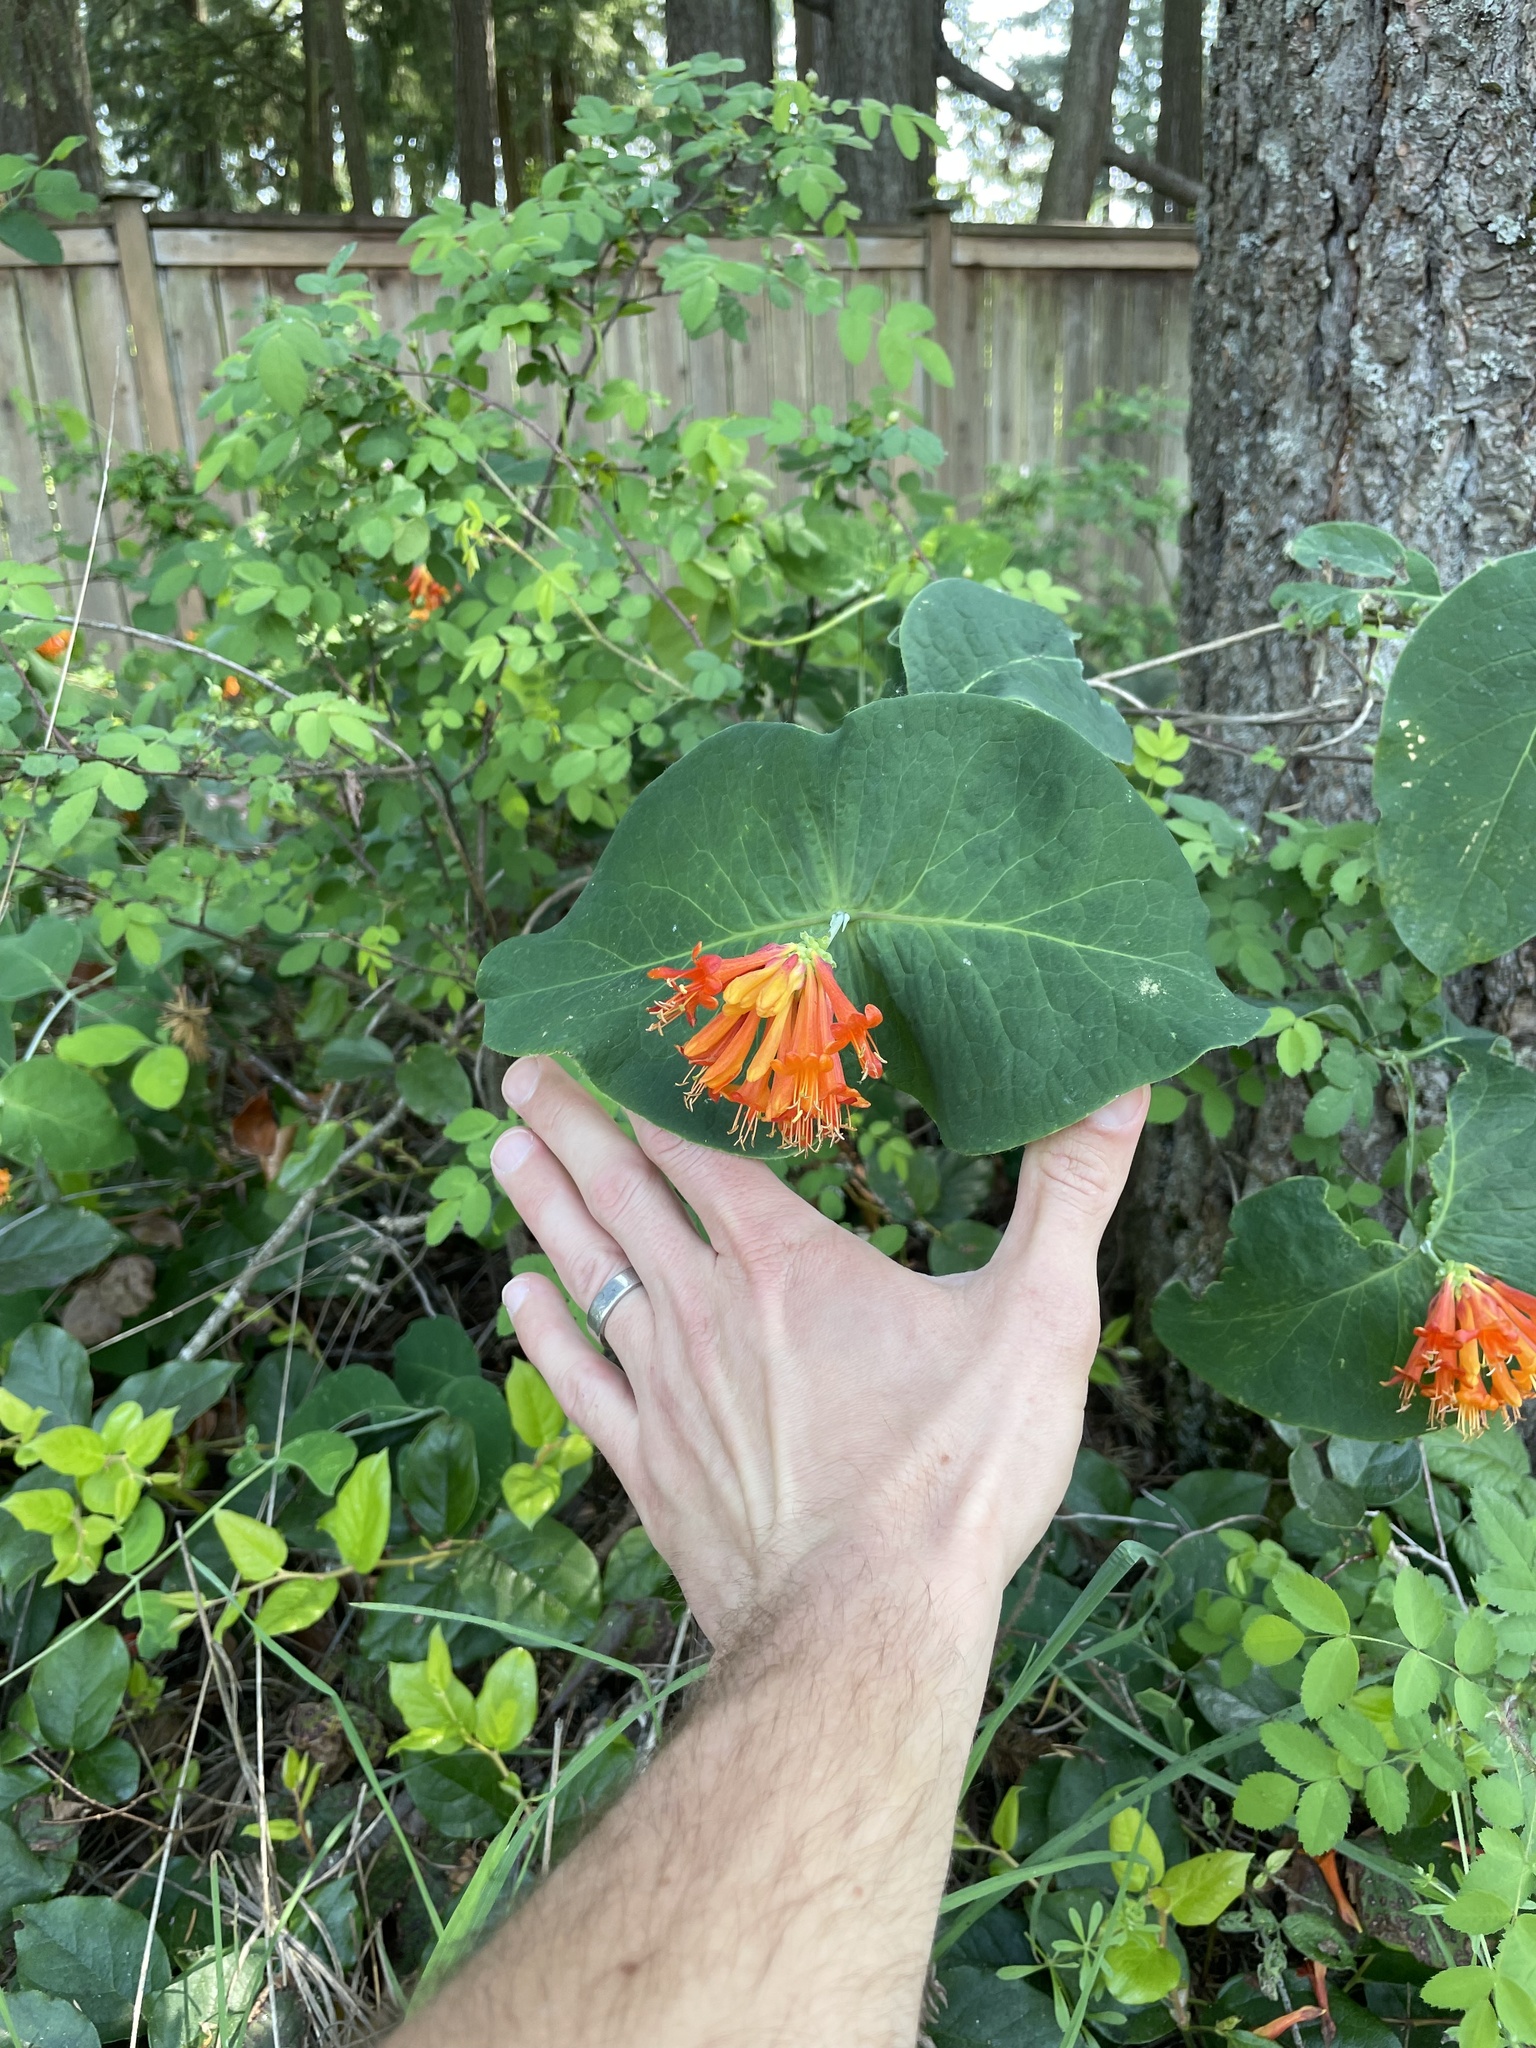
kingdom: Plantae
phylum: Tracheophyta
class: Magnoliopsida
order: Dipsacales
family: Caprifoliaceae
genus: Lonicera
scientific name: Lonicera ciliosa
